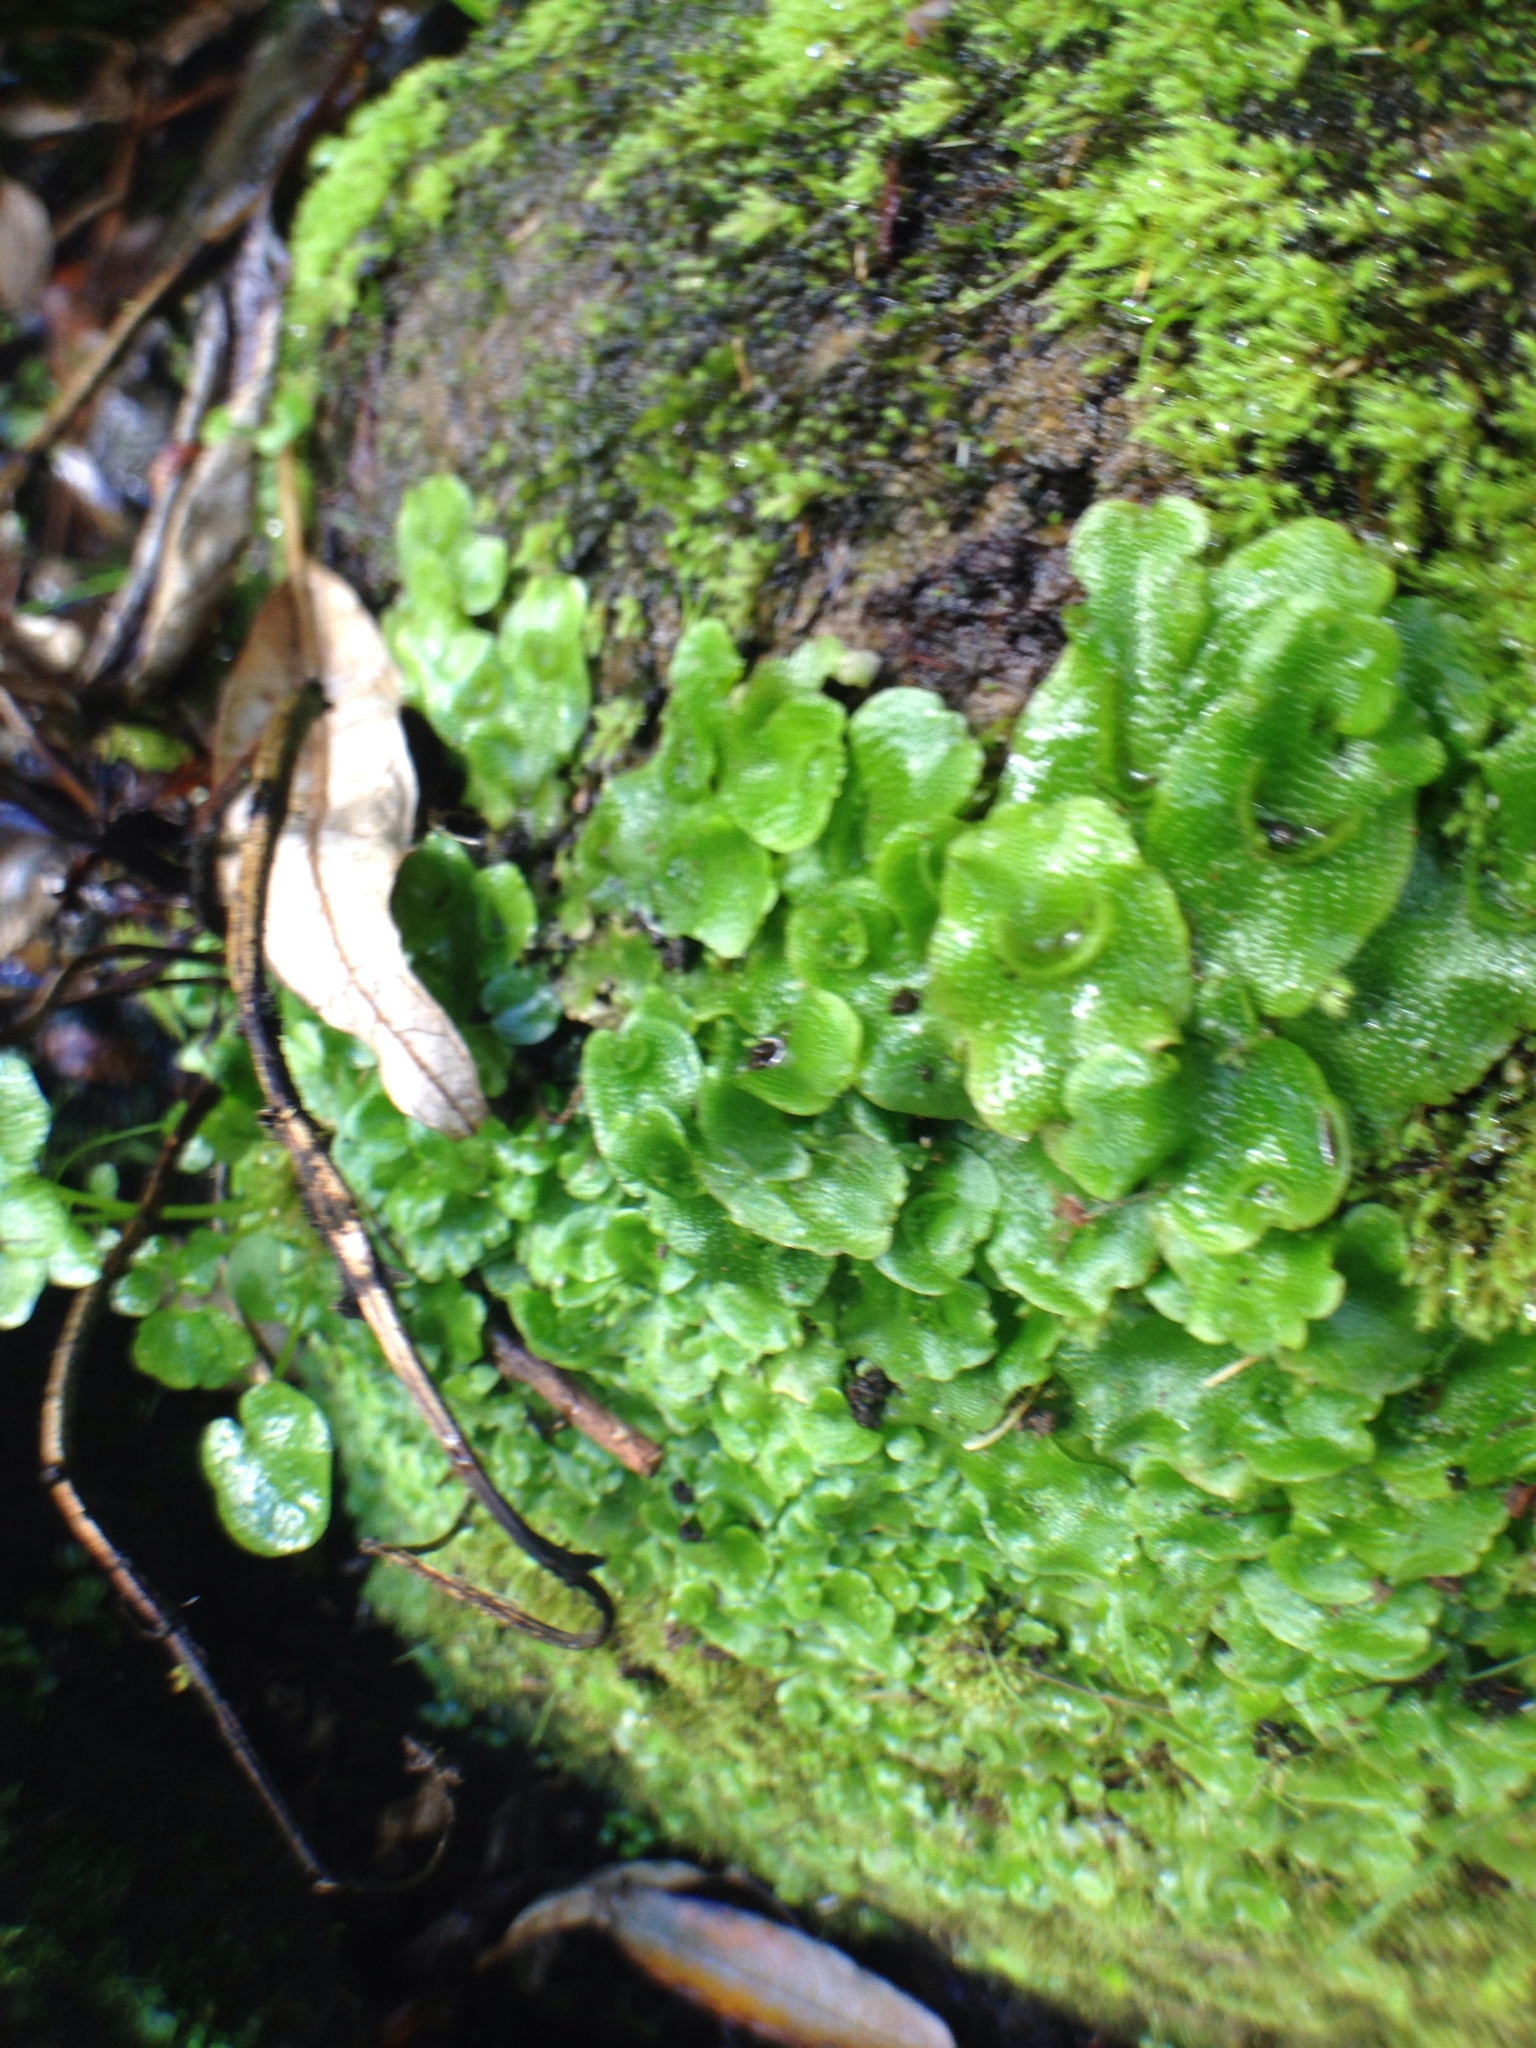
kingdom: Plantae
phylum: Marchantiophyta
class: Marchantiopsida
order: Lunulariales
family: Lunulariaceae
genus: Lunularia
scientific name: Lunularia cruciata
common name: Crescent-cup liverwort
